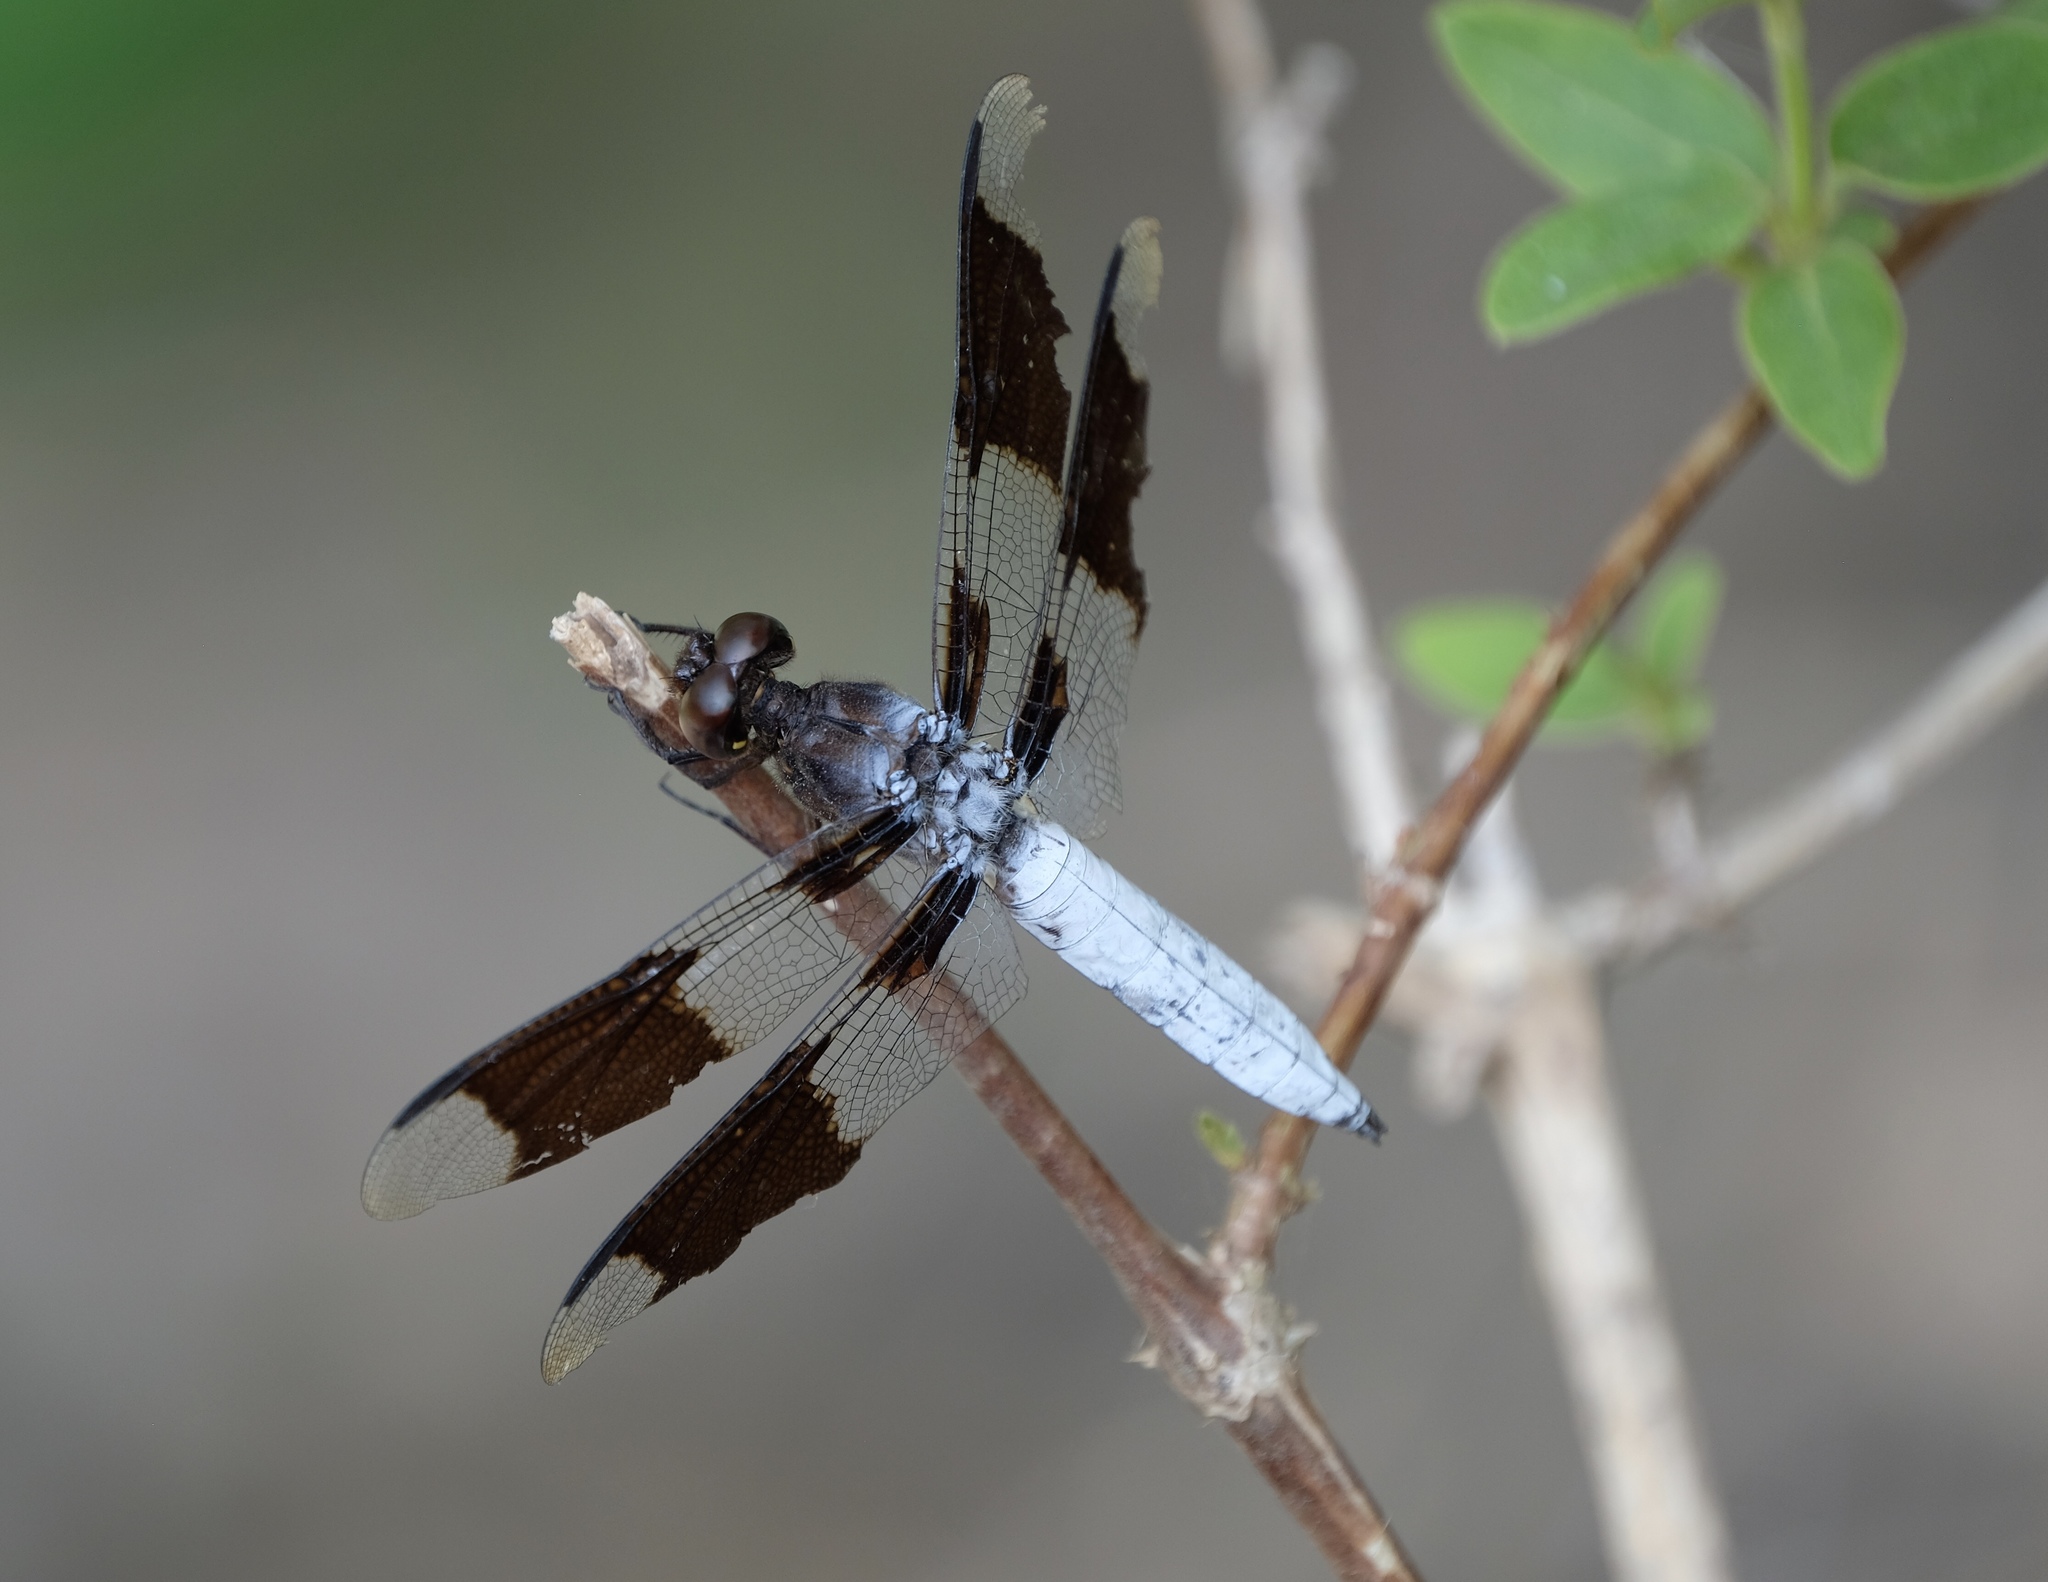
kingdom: Animalia
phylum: Arthropoda
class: Insecta
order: Odonata
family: Libellulidae
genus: Plathemis
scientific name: Plathemis lydia
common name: Common whitetail
